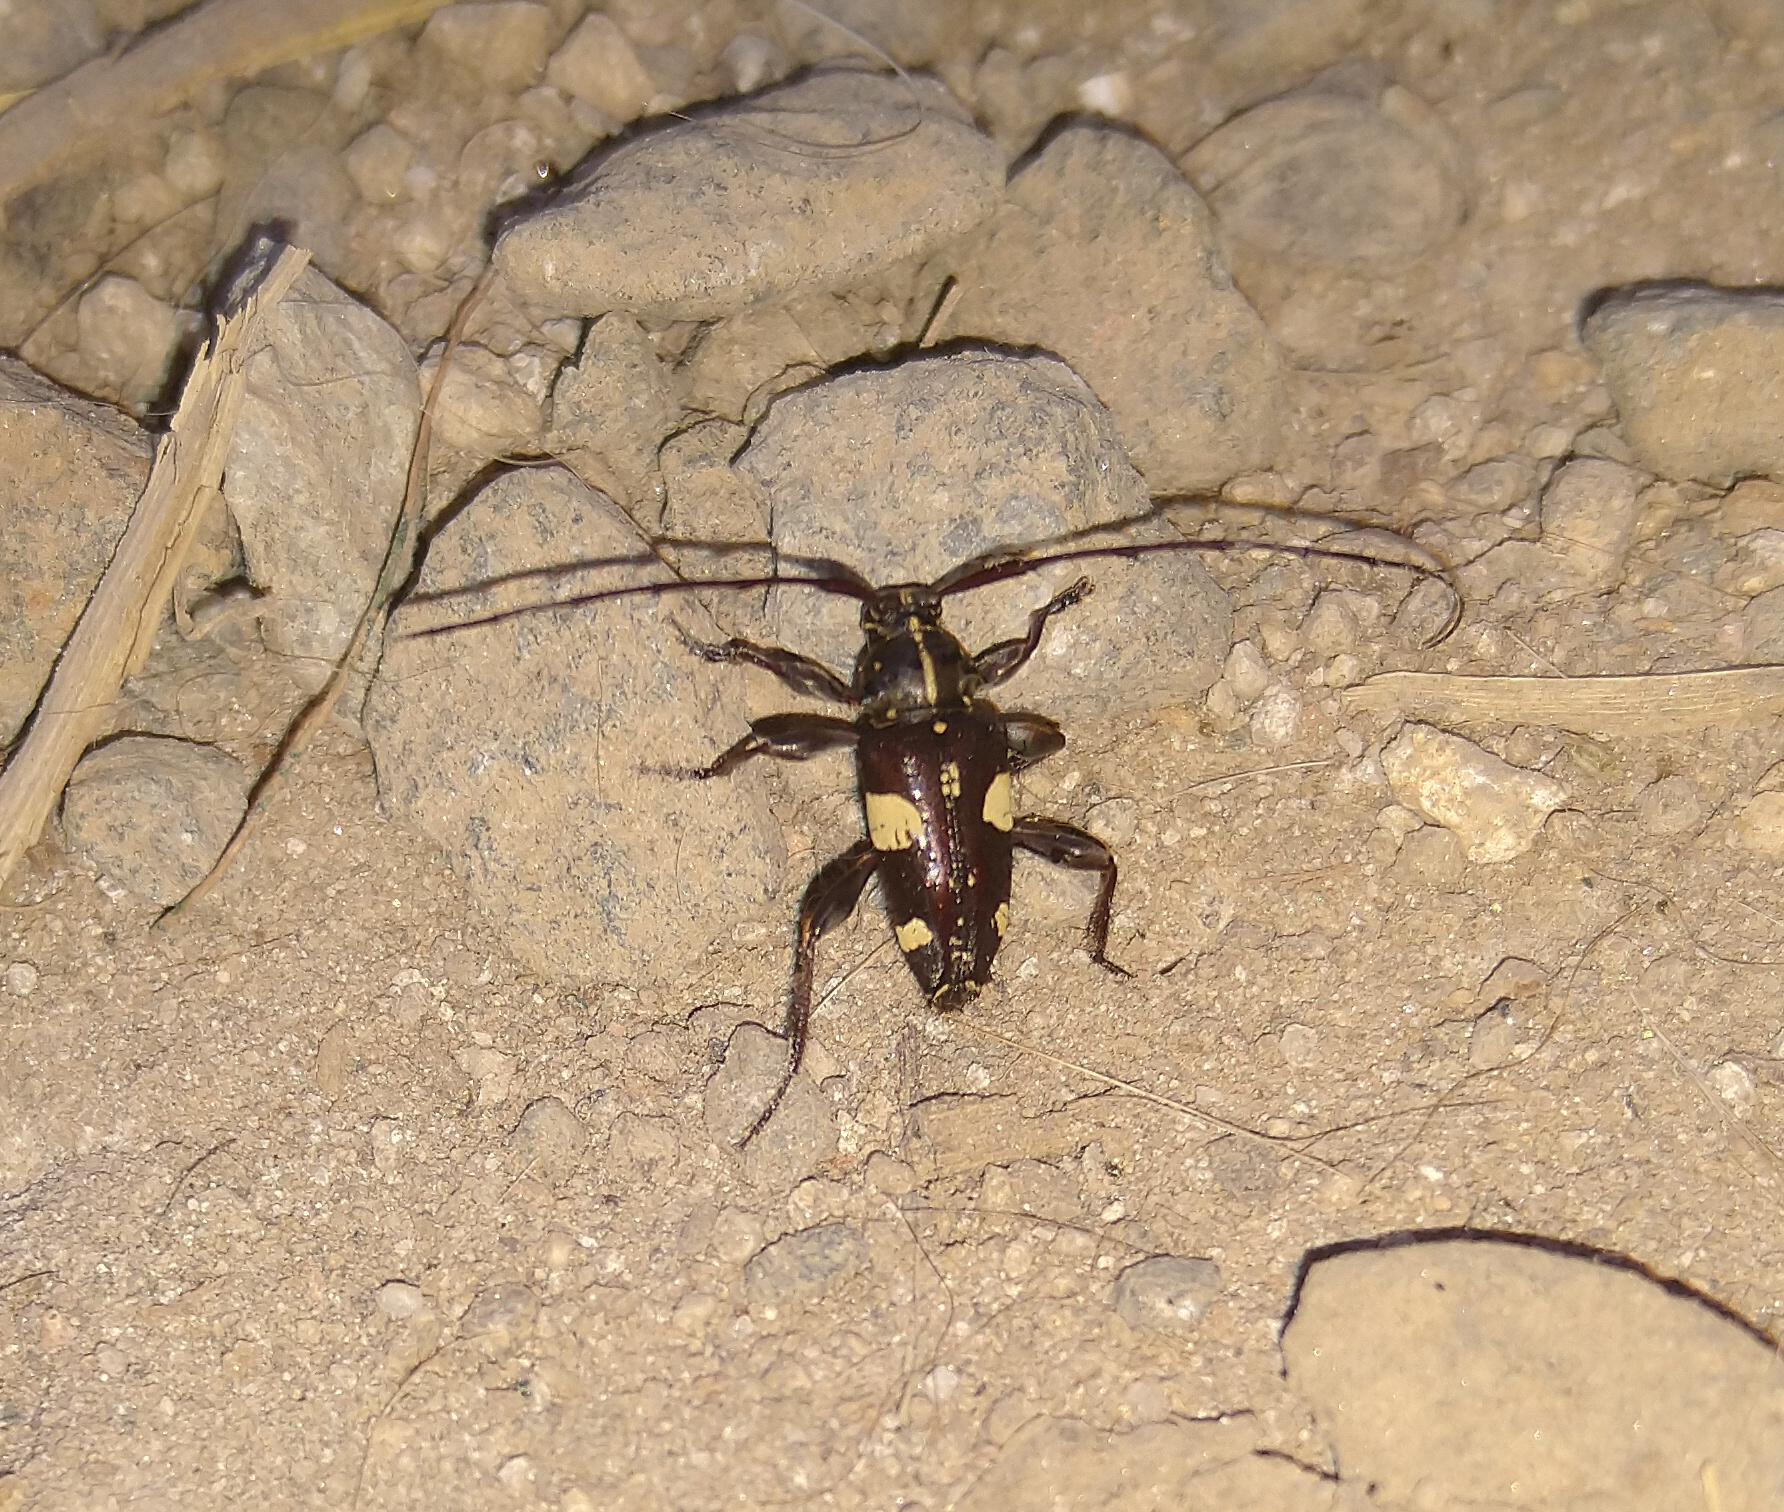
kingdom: Animalia
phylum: Arthropoda
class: Insecta
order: Coleoptera
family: Cerambycidae
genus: Alcidion
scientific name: Alcidion ludicrum
